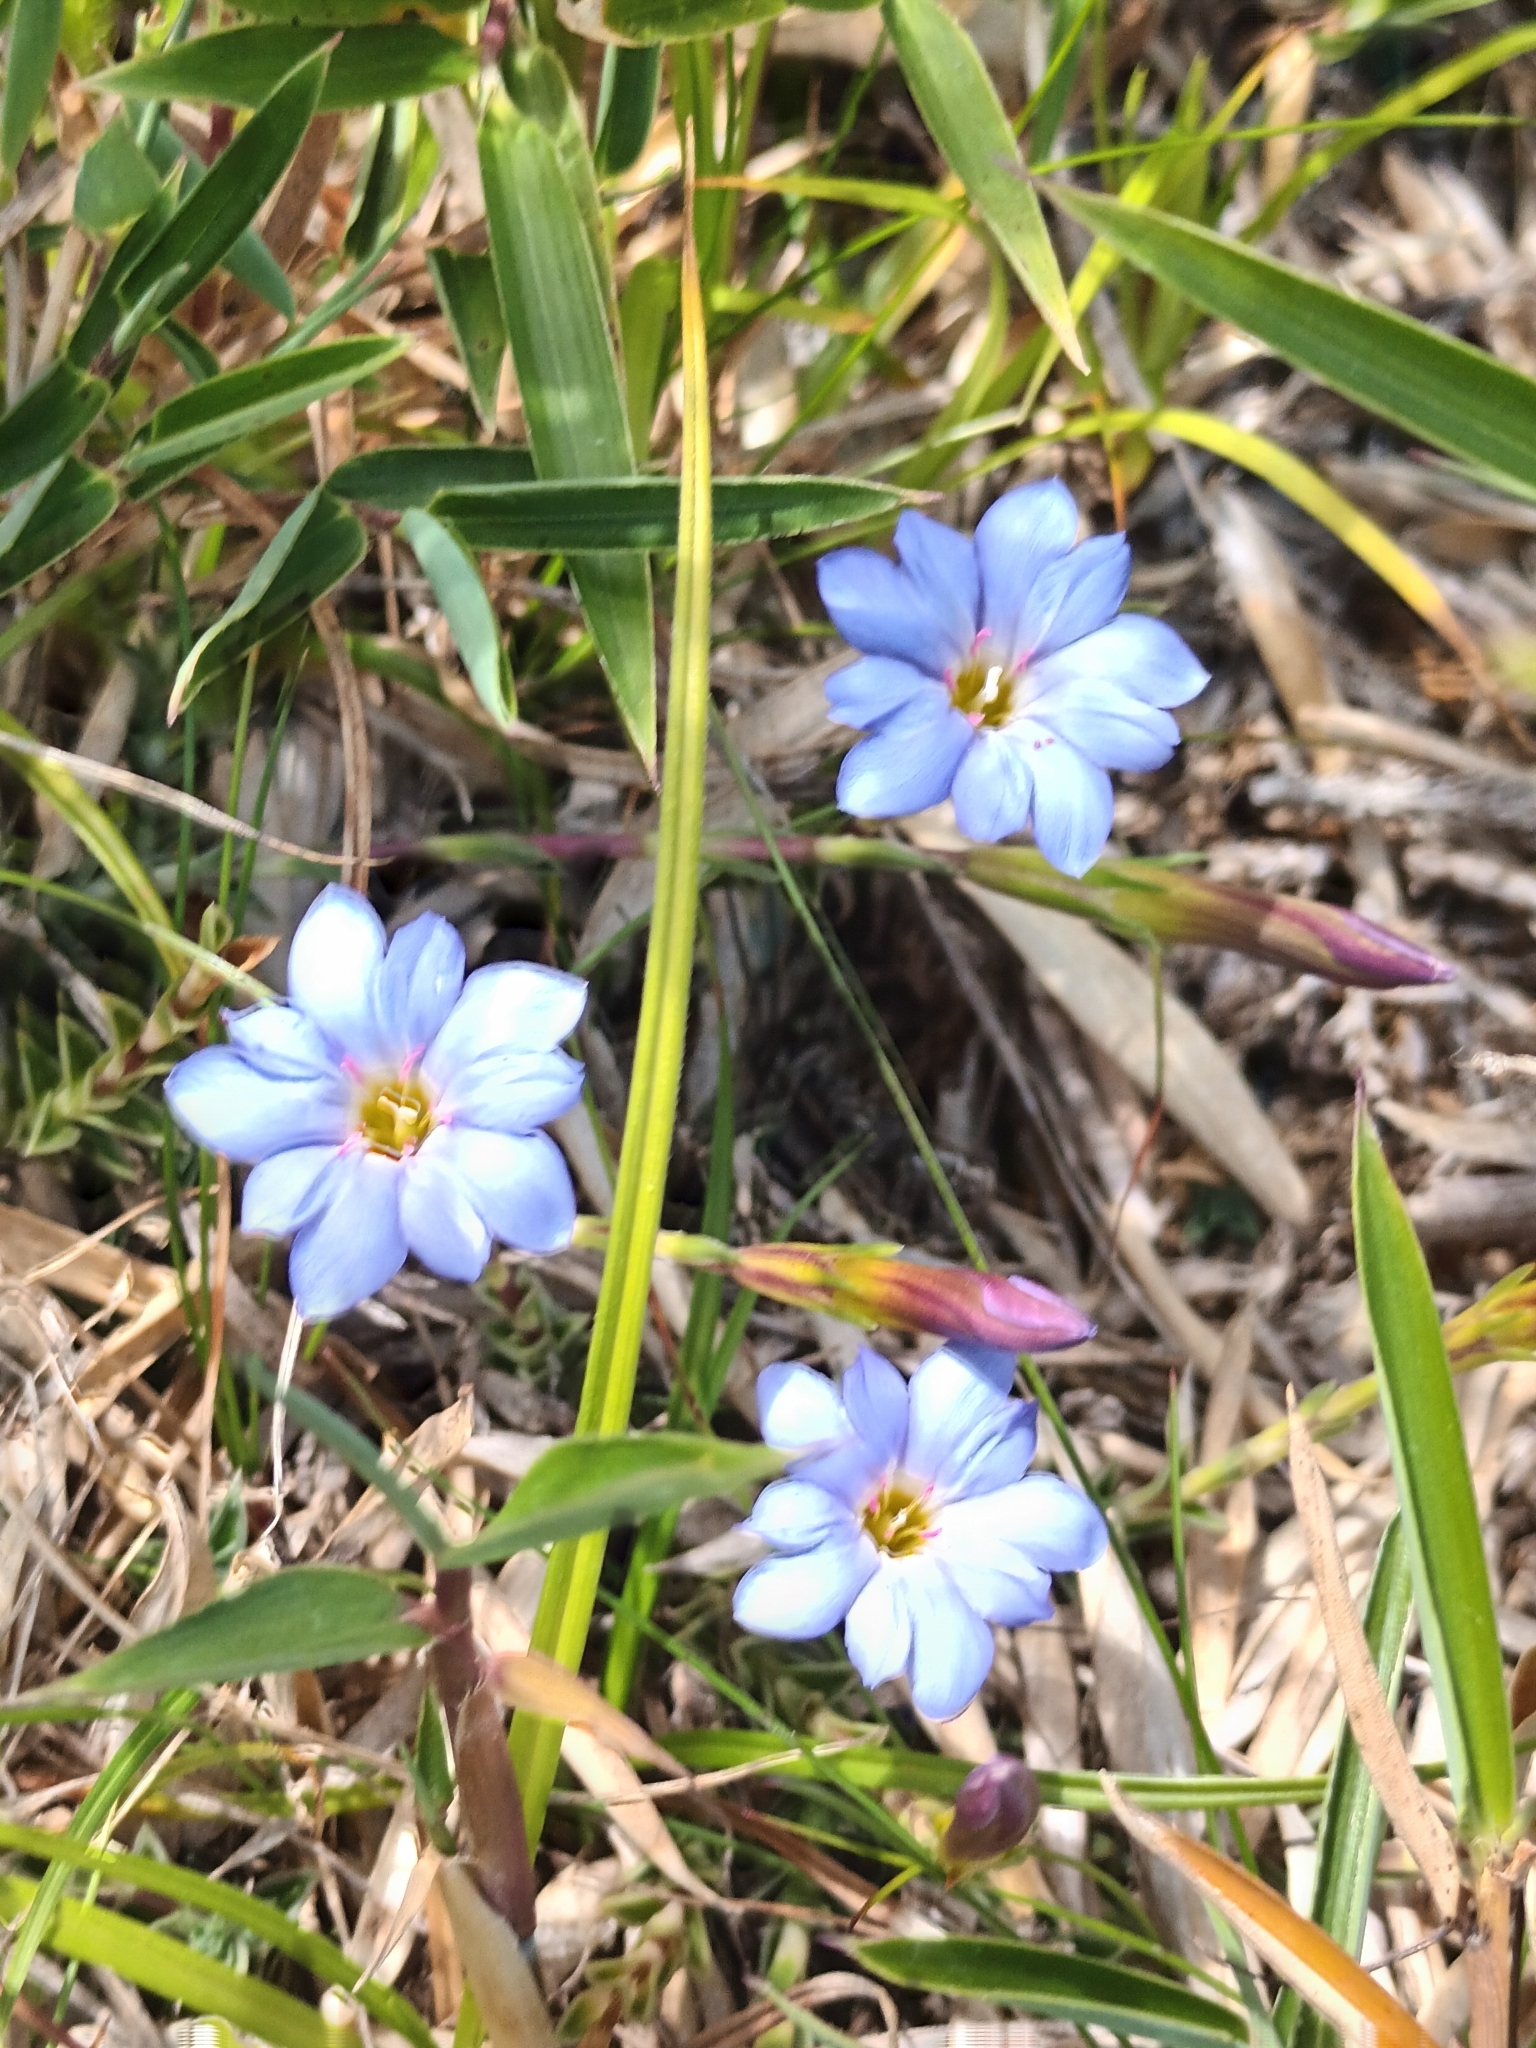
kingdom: Plantae
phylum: Tracheophyta
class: Magnoliopsida
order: Gentianales
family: Gentianaceae
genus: Gentiana
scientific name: Gentiana arisanensis
